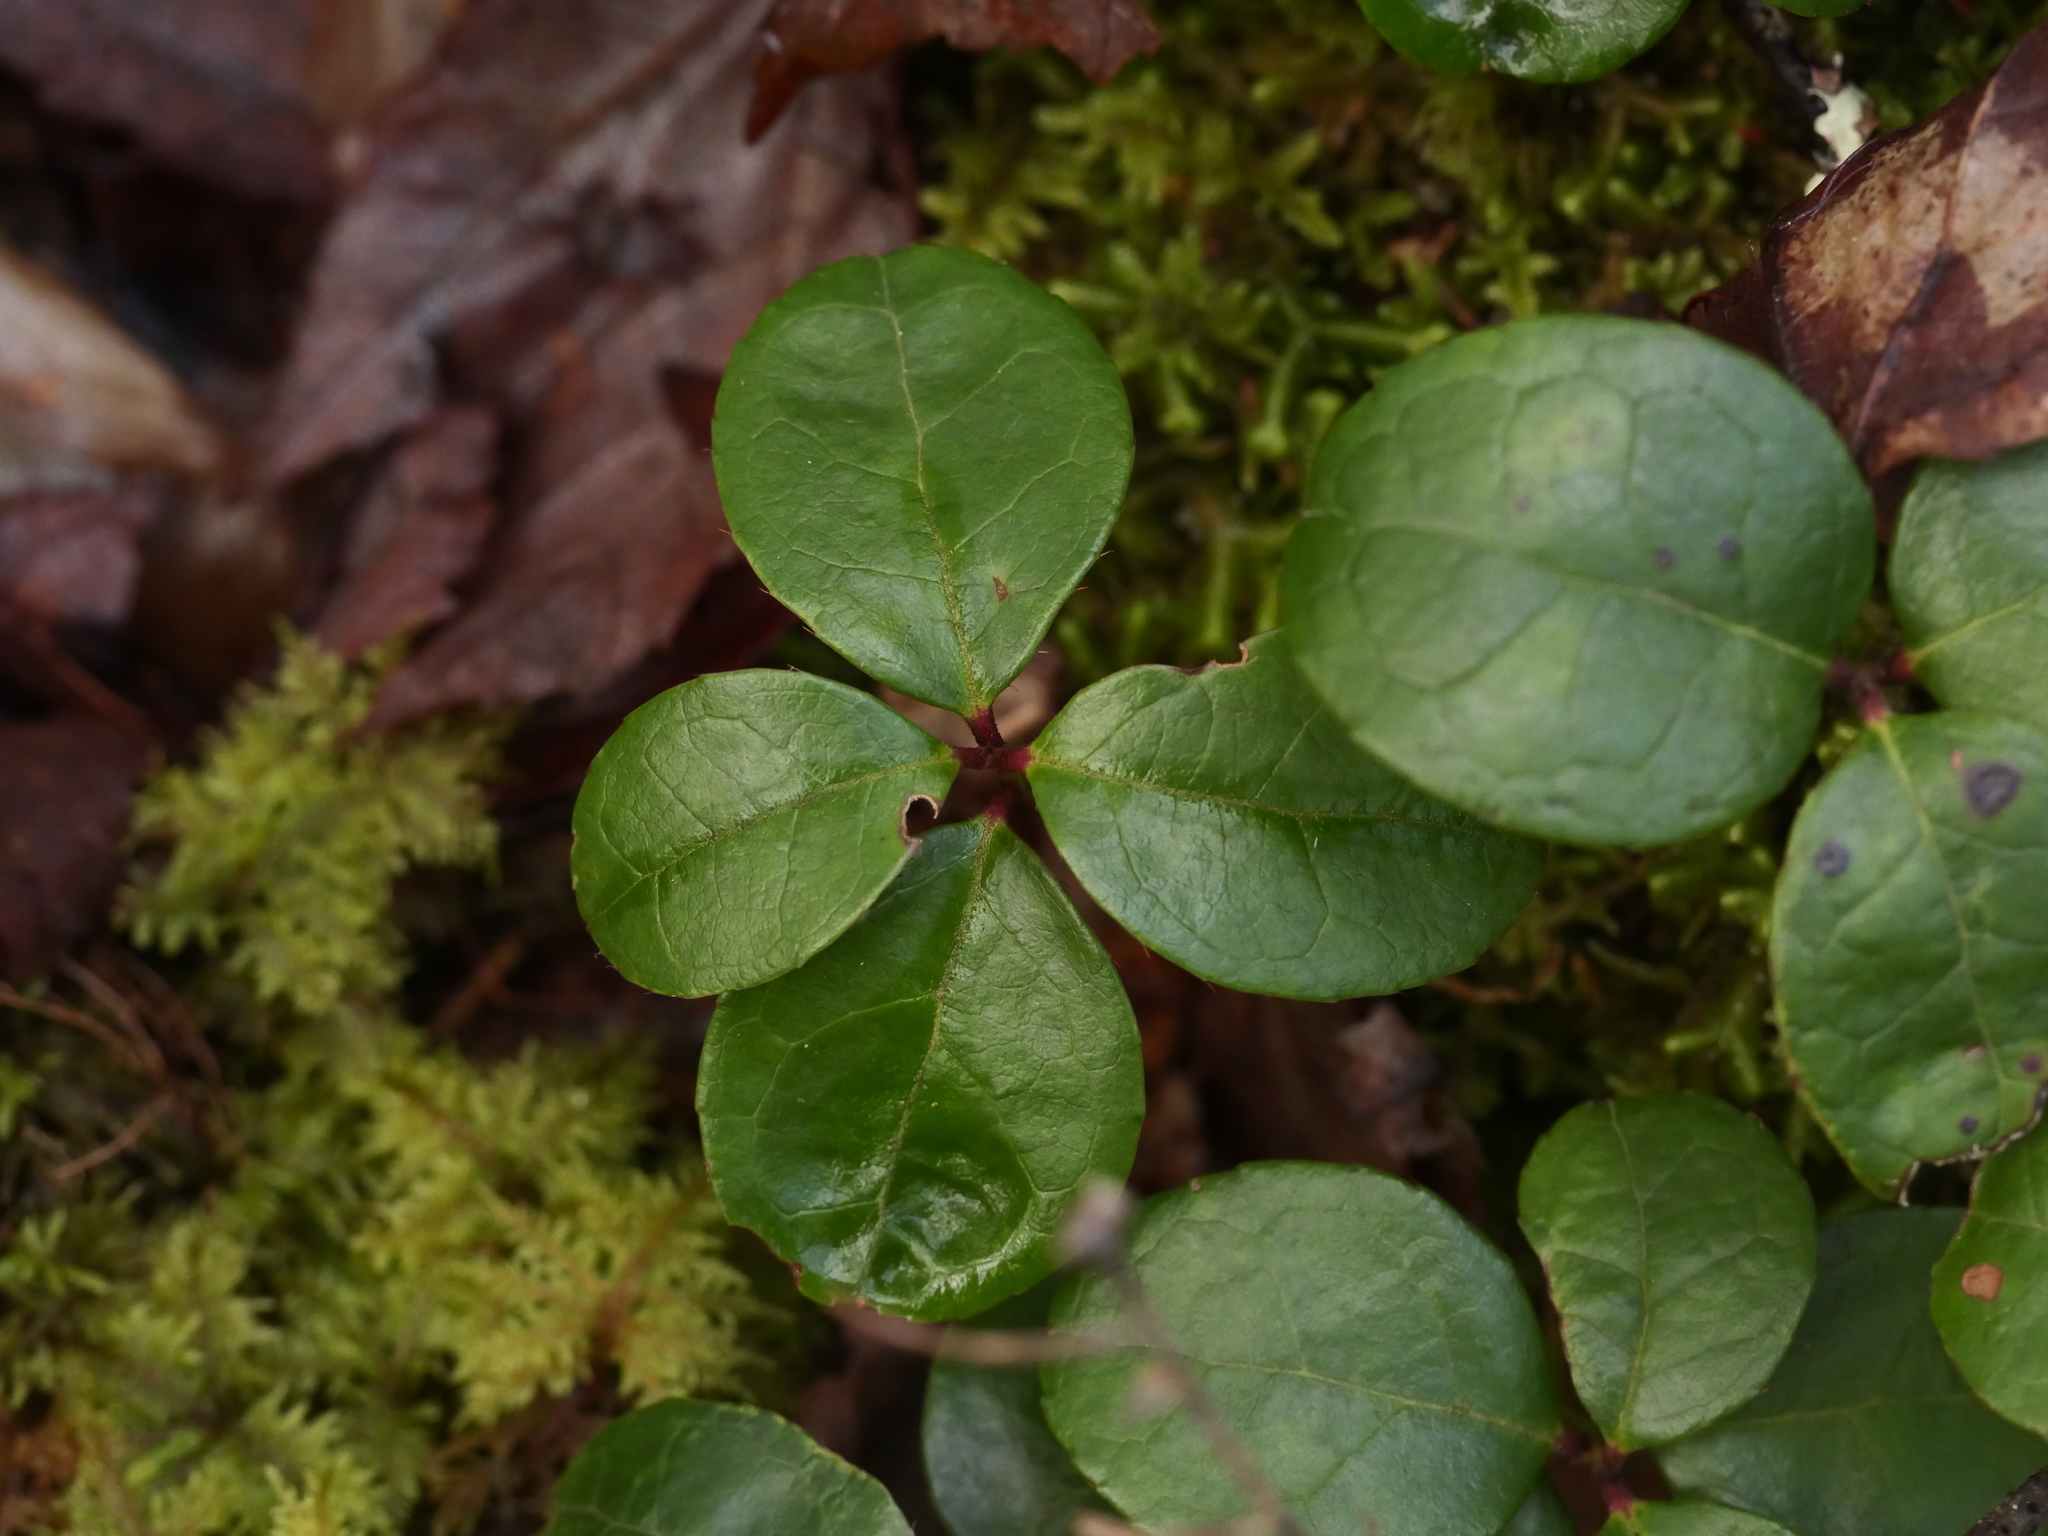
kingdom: Plantae
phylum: Tracheophyta
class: Magnoliopsida
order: Ericales
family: Ericaceae
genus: Gaultheria
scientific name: Gaultheria procumbens
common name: Checkerberry
